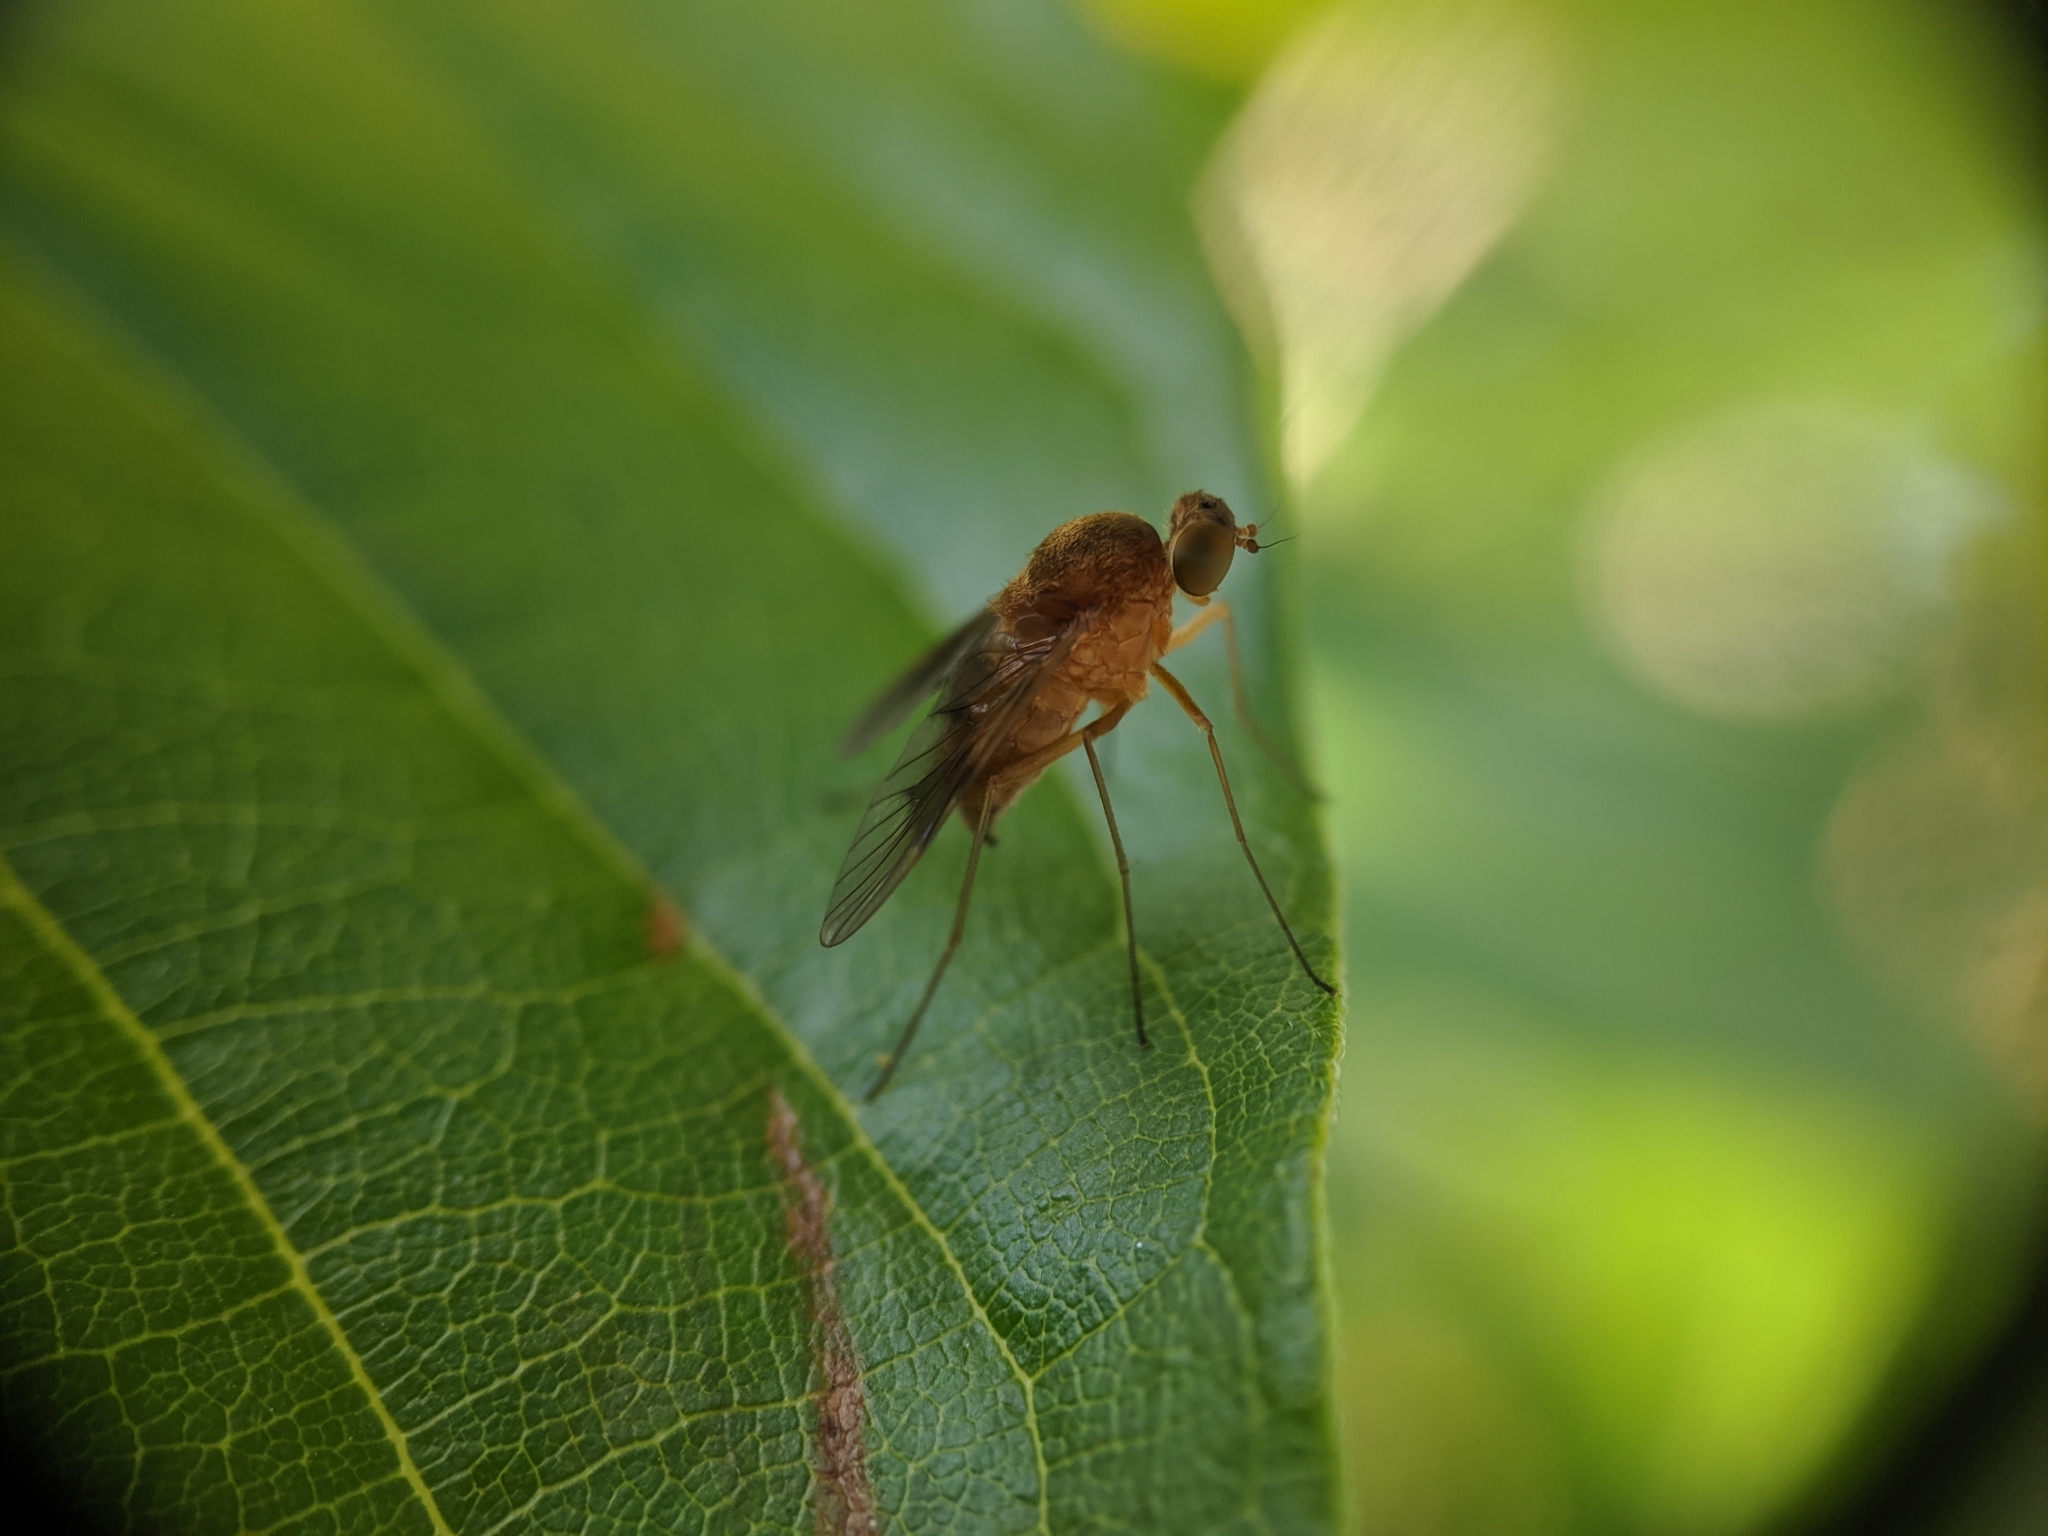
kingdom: Animalia
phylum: Arthropoda
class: Insecta
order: Diptera
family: Rhagionidae
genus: Chrysopilus
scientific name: Chrysopilus quadratus
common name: Quadrate snipe fly
